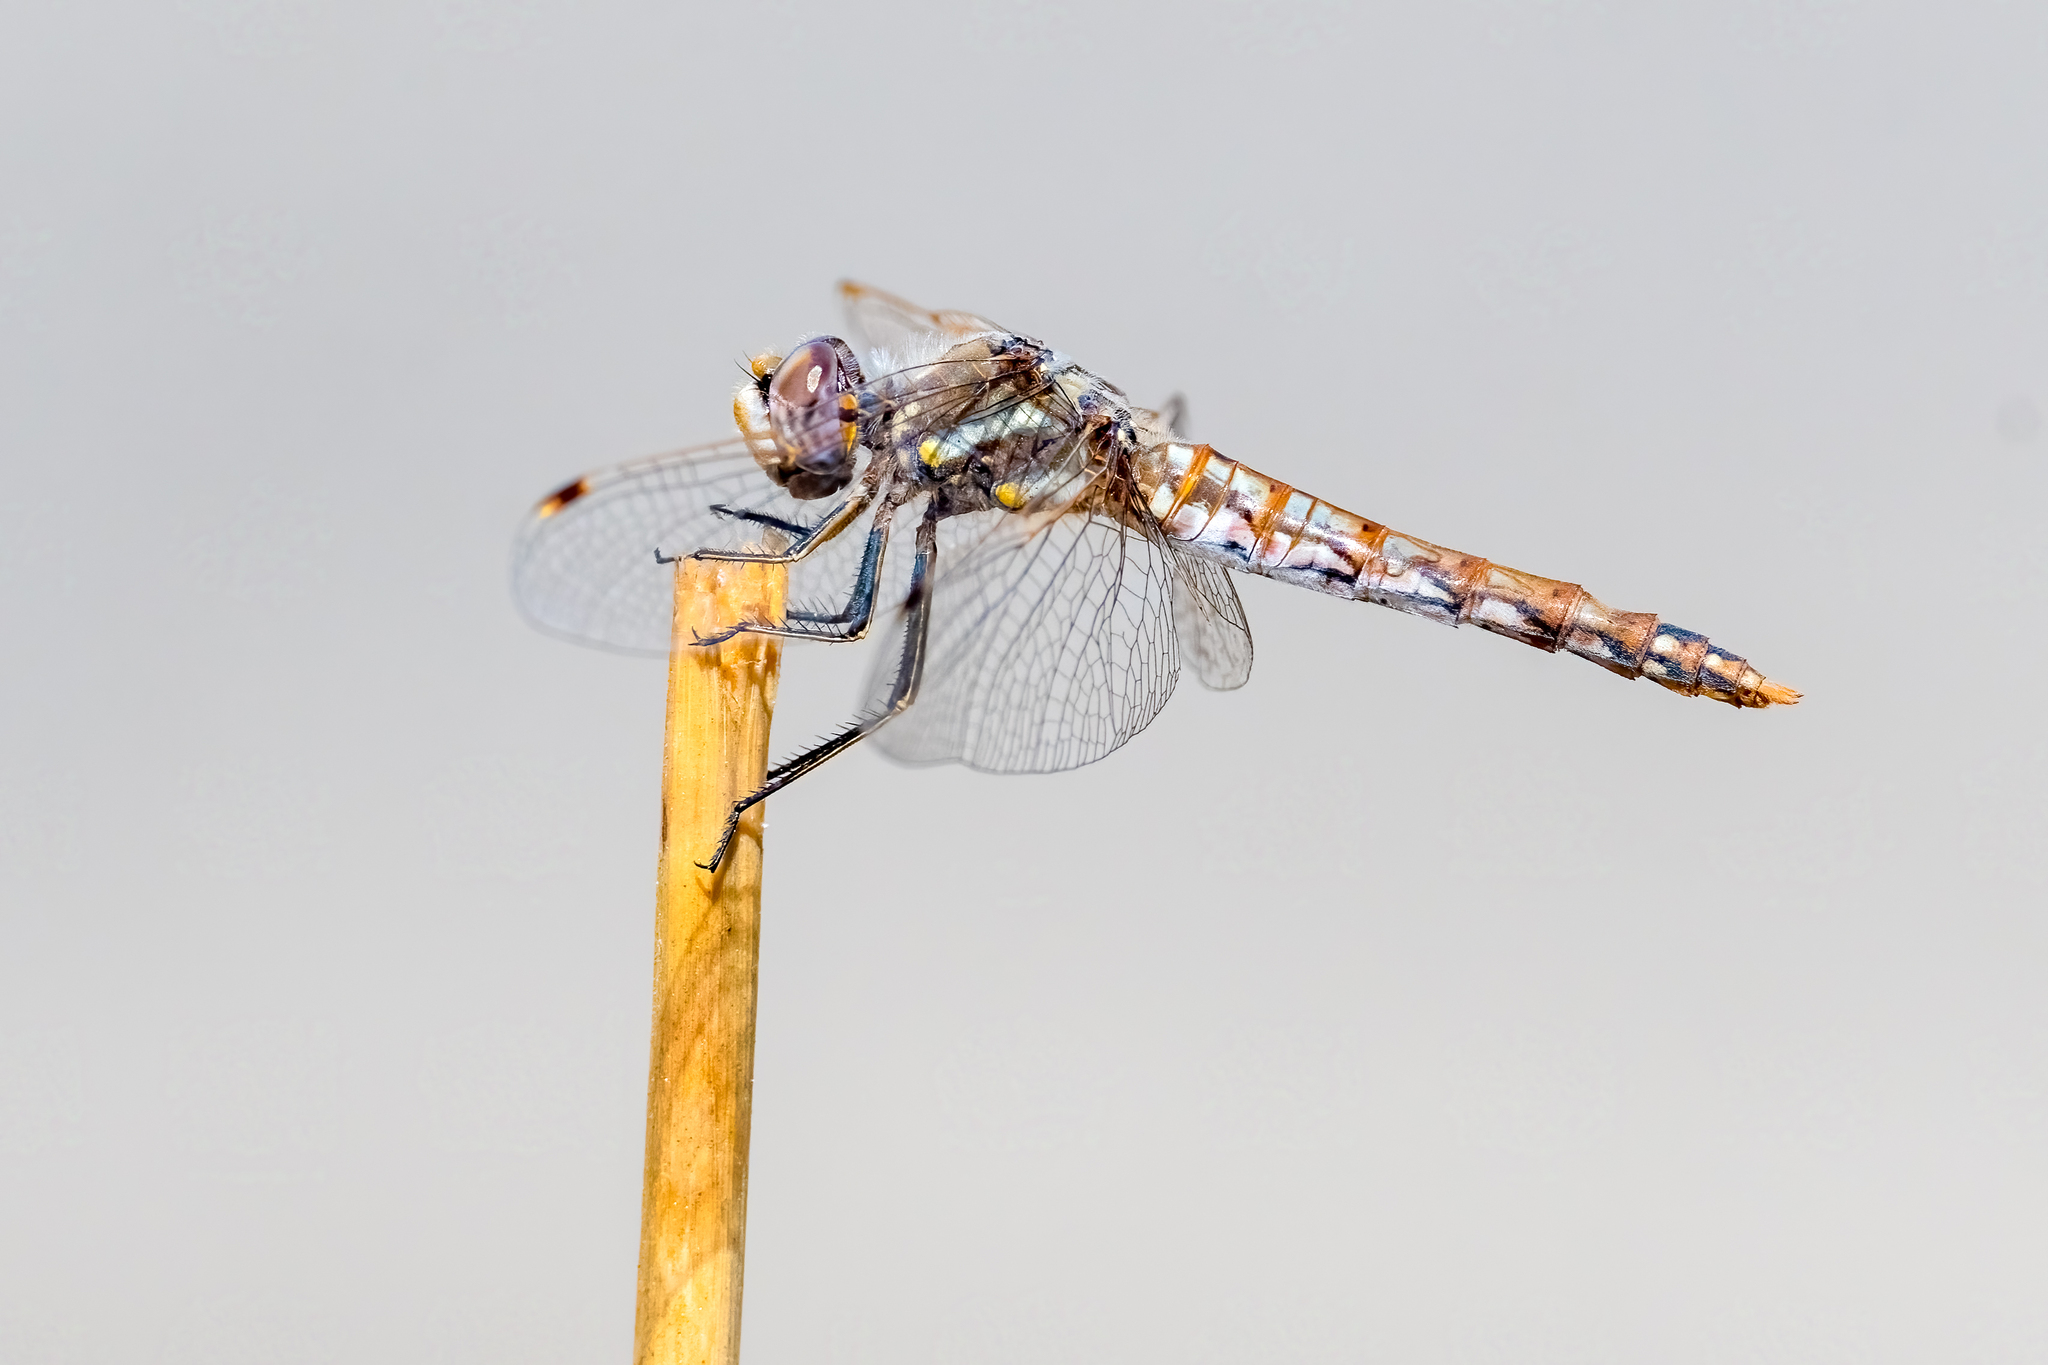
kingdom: Animalia
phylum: Arthropoda
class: Insecta
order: Odonata
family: Libellulidae
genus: Sympetrum
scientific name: Sympetrum corruptum
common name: Variegated meadowhawk
